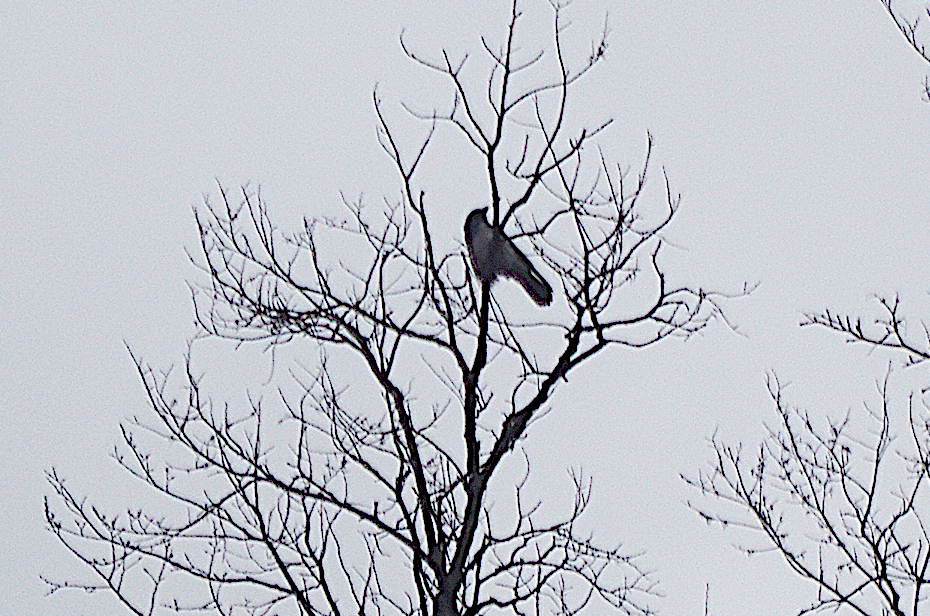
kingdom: Animalia
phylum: Chordata
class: Aves
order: Passeriformes
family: Corvidae
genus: Corvus
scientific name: Corvus cornix
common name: Hooded crow
